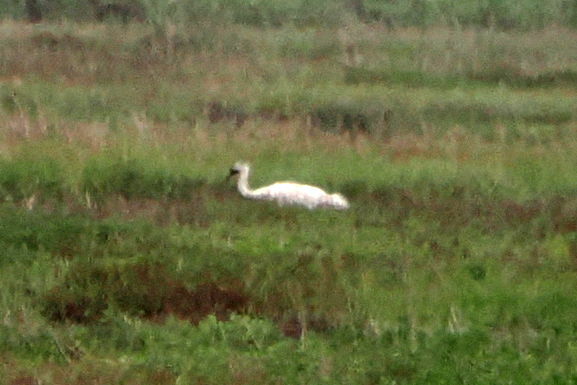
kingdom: Animalia
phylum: Chordata
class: Aves
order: Gruiformes
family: Gruidae
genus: Grus
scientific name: Grus americana
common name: Whooping crane
